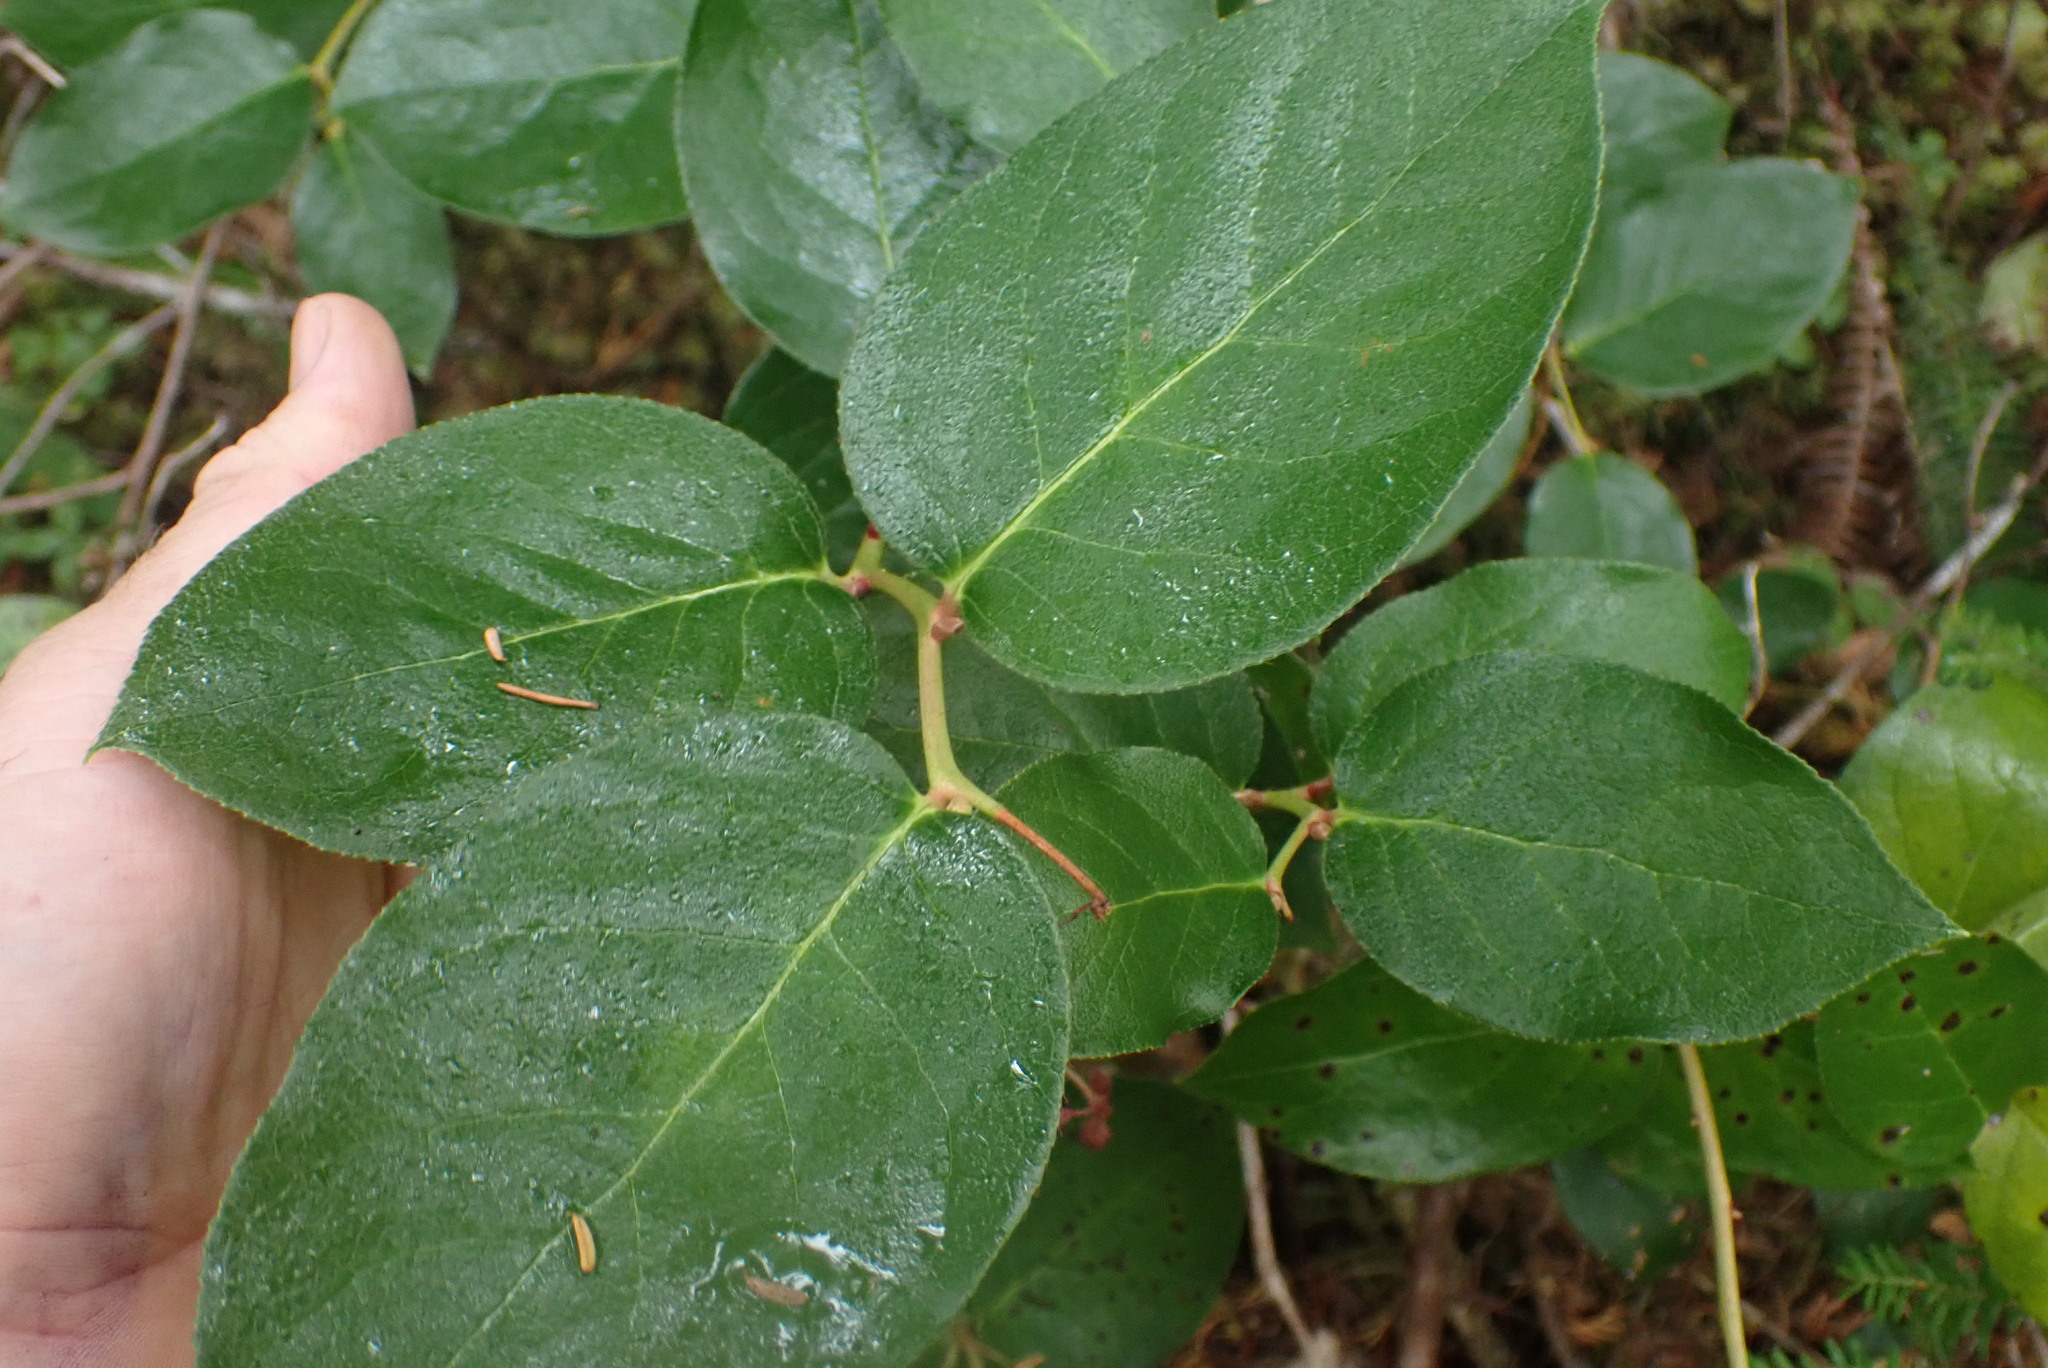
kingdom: Plantae
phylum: Tracheophyta
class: Magnoliopsida
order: Ericales
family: Ericaceae
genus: Gaultheria
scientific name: Gaultheria shallon
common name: Shallon
